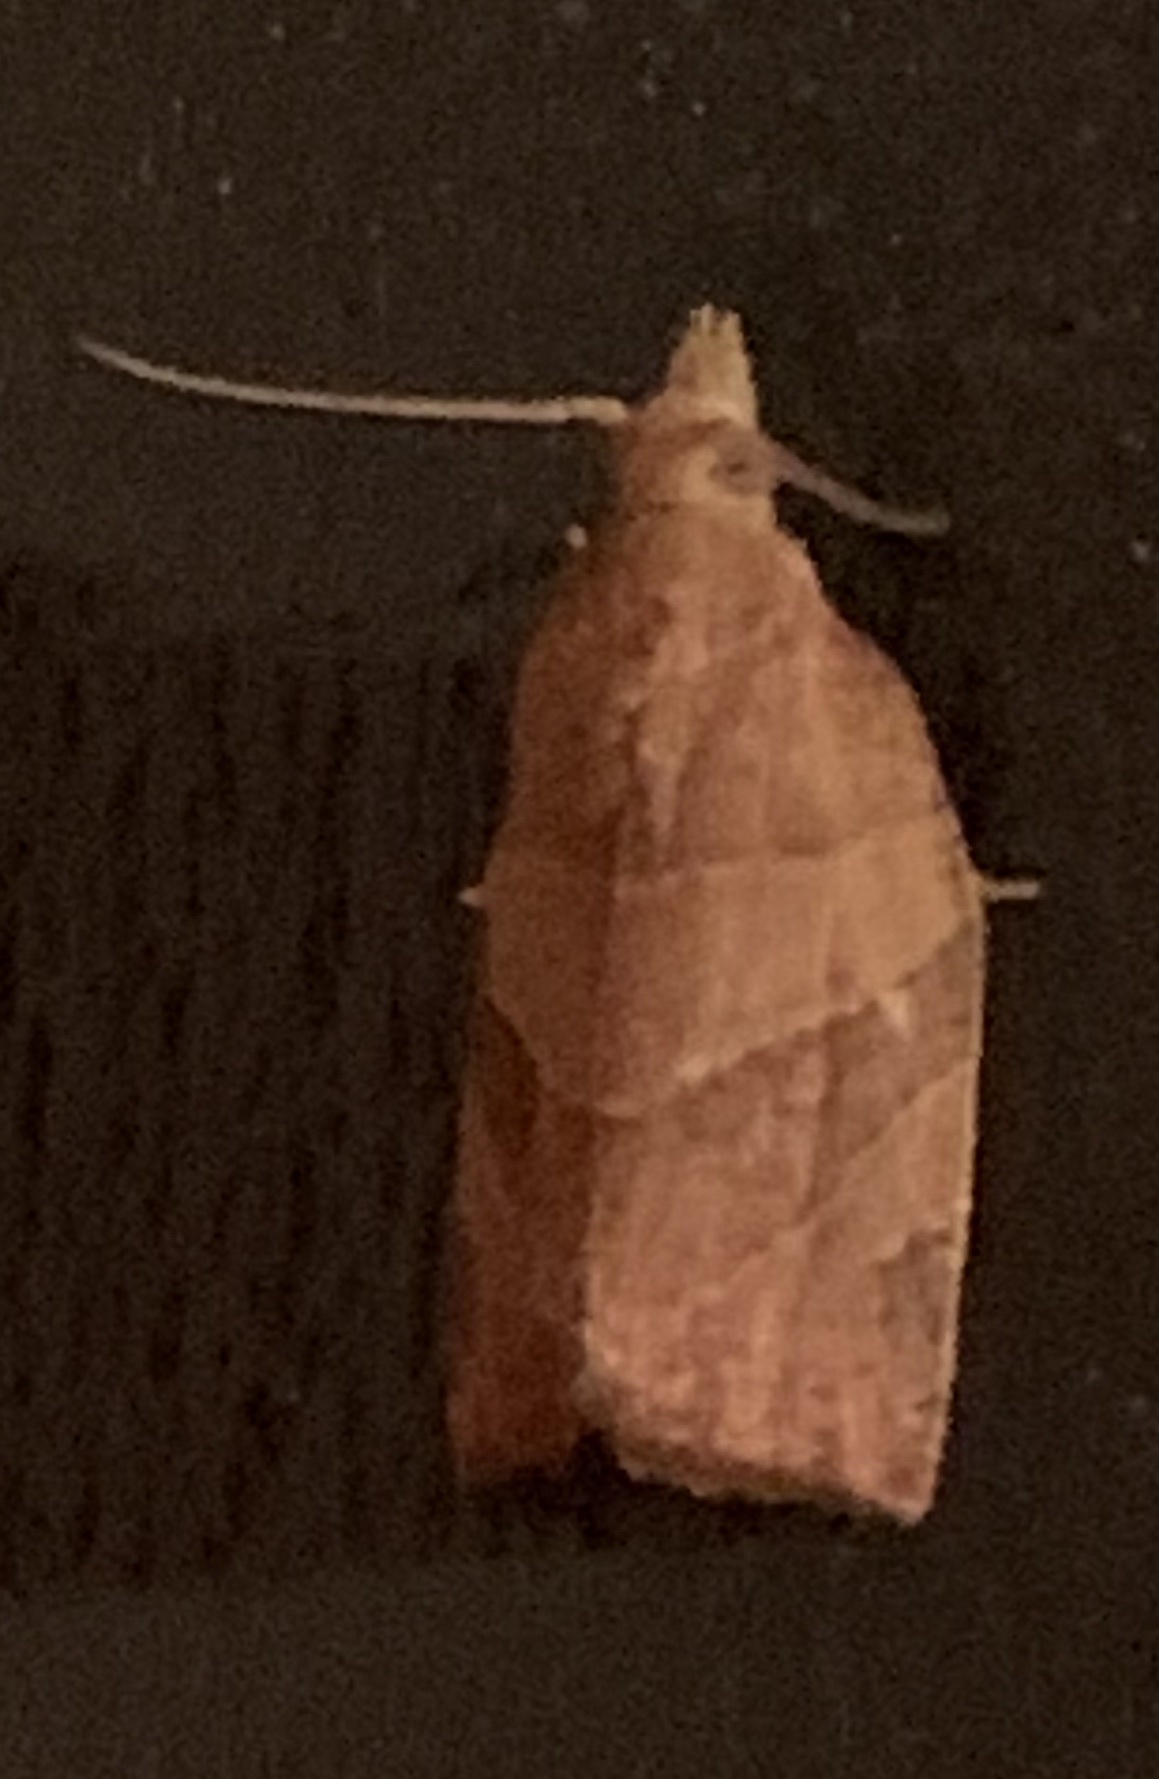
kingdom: Animalia
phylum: Arthropoda
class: Insecta
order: Lepidoptera
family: Tortricidae
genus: Pandemis
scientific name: Pandemis limitata
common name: Three-lined leafroller moth
